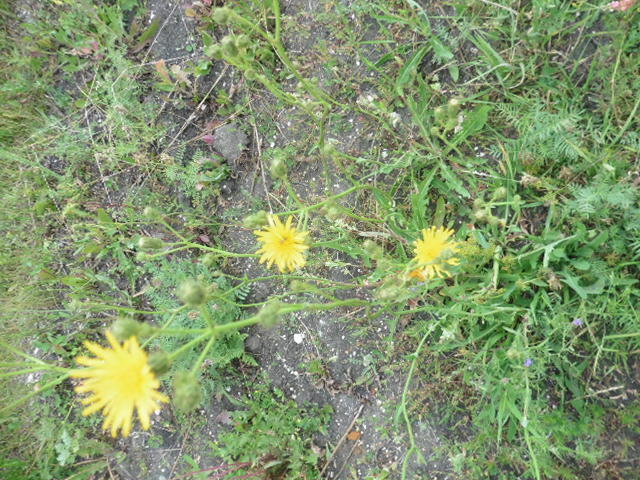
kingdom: Plantae
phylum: Tracheophyta
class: Magnoliopsida
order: Asterales
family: Asteraceae
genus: Sonchus
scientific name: Sonchus arvensis
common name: Perennial sow-thistle
